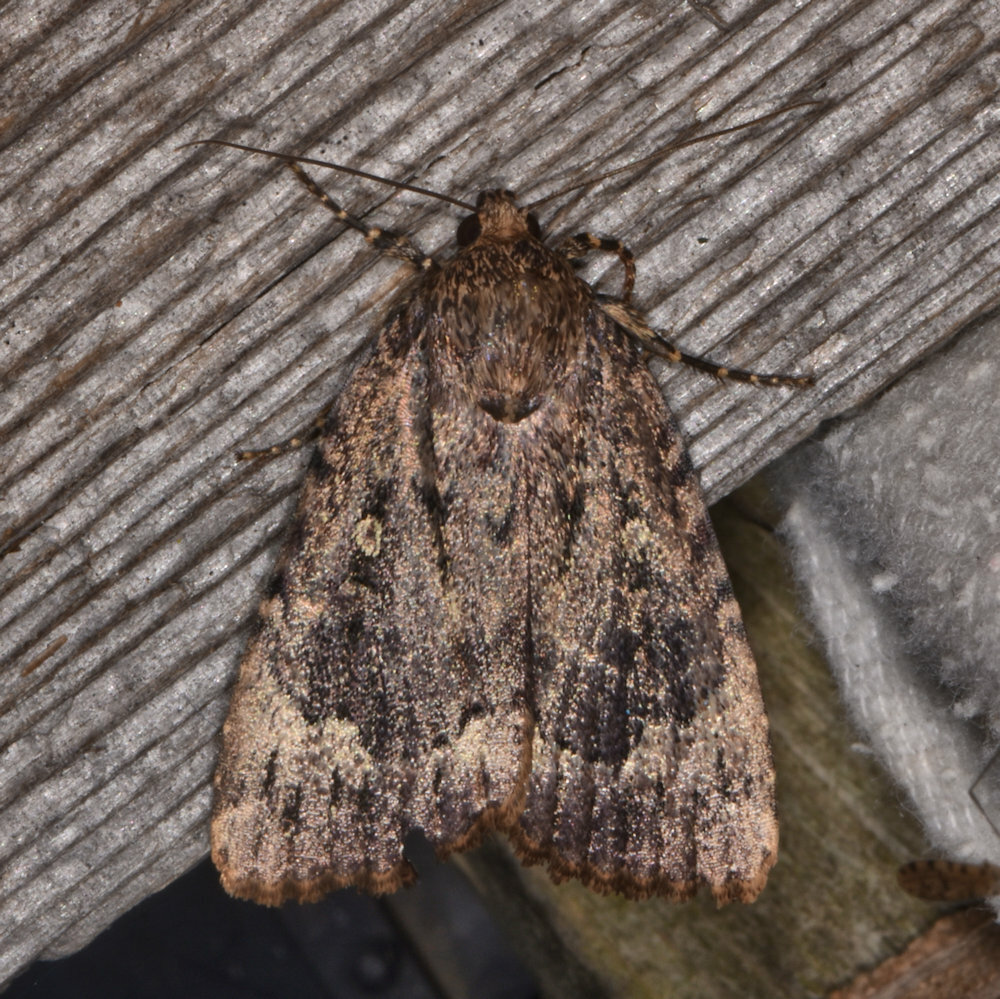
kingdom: Animalia
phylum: Arthropoda
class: Insecta
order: Lepidoptera
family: Noctuidae
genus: Amphipyra
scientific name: Amphipyra pyramidoides
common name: American copper underwing
